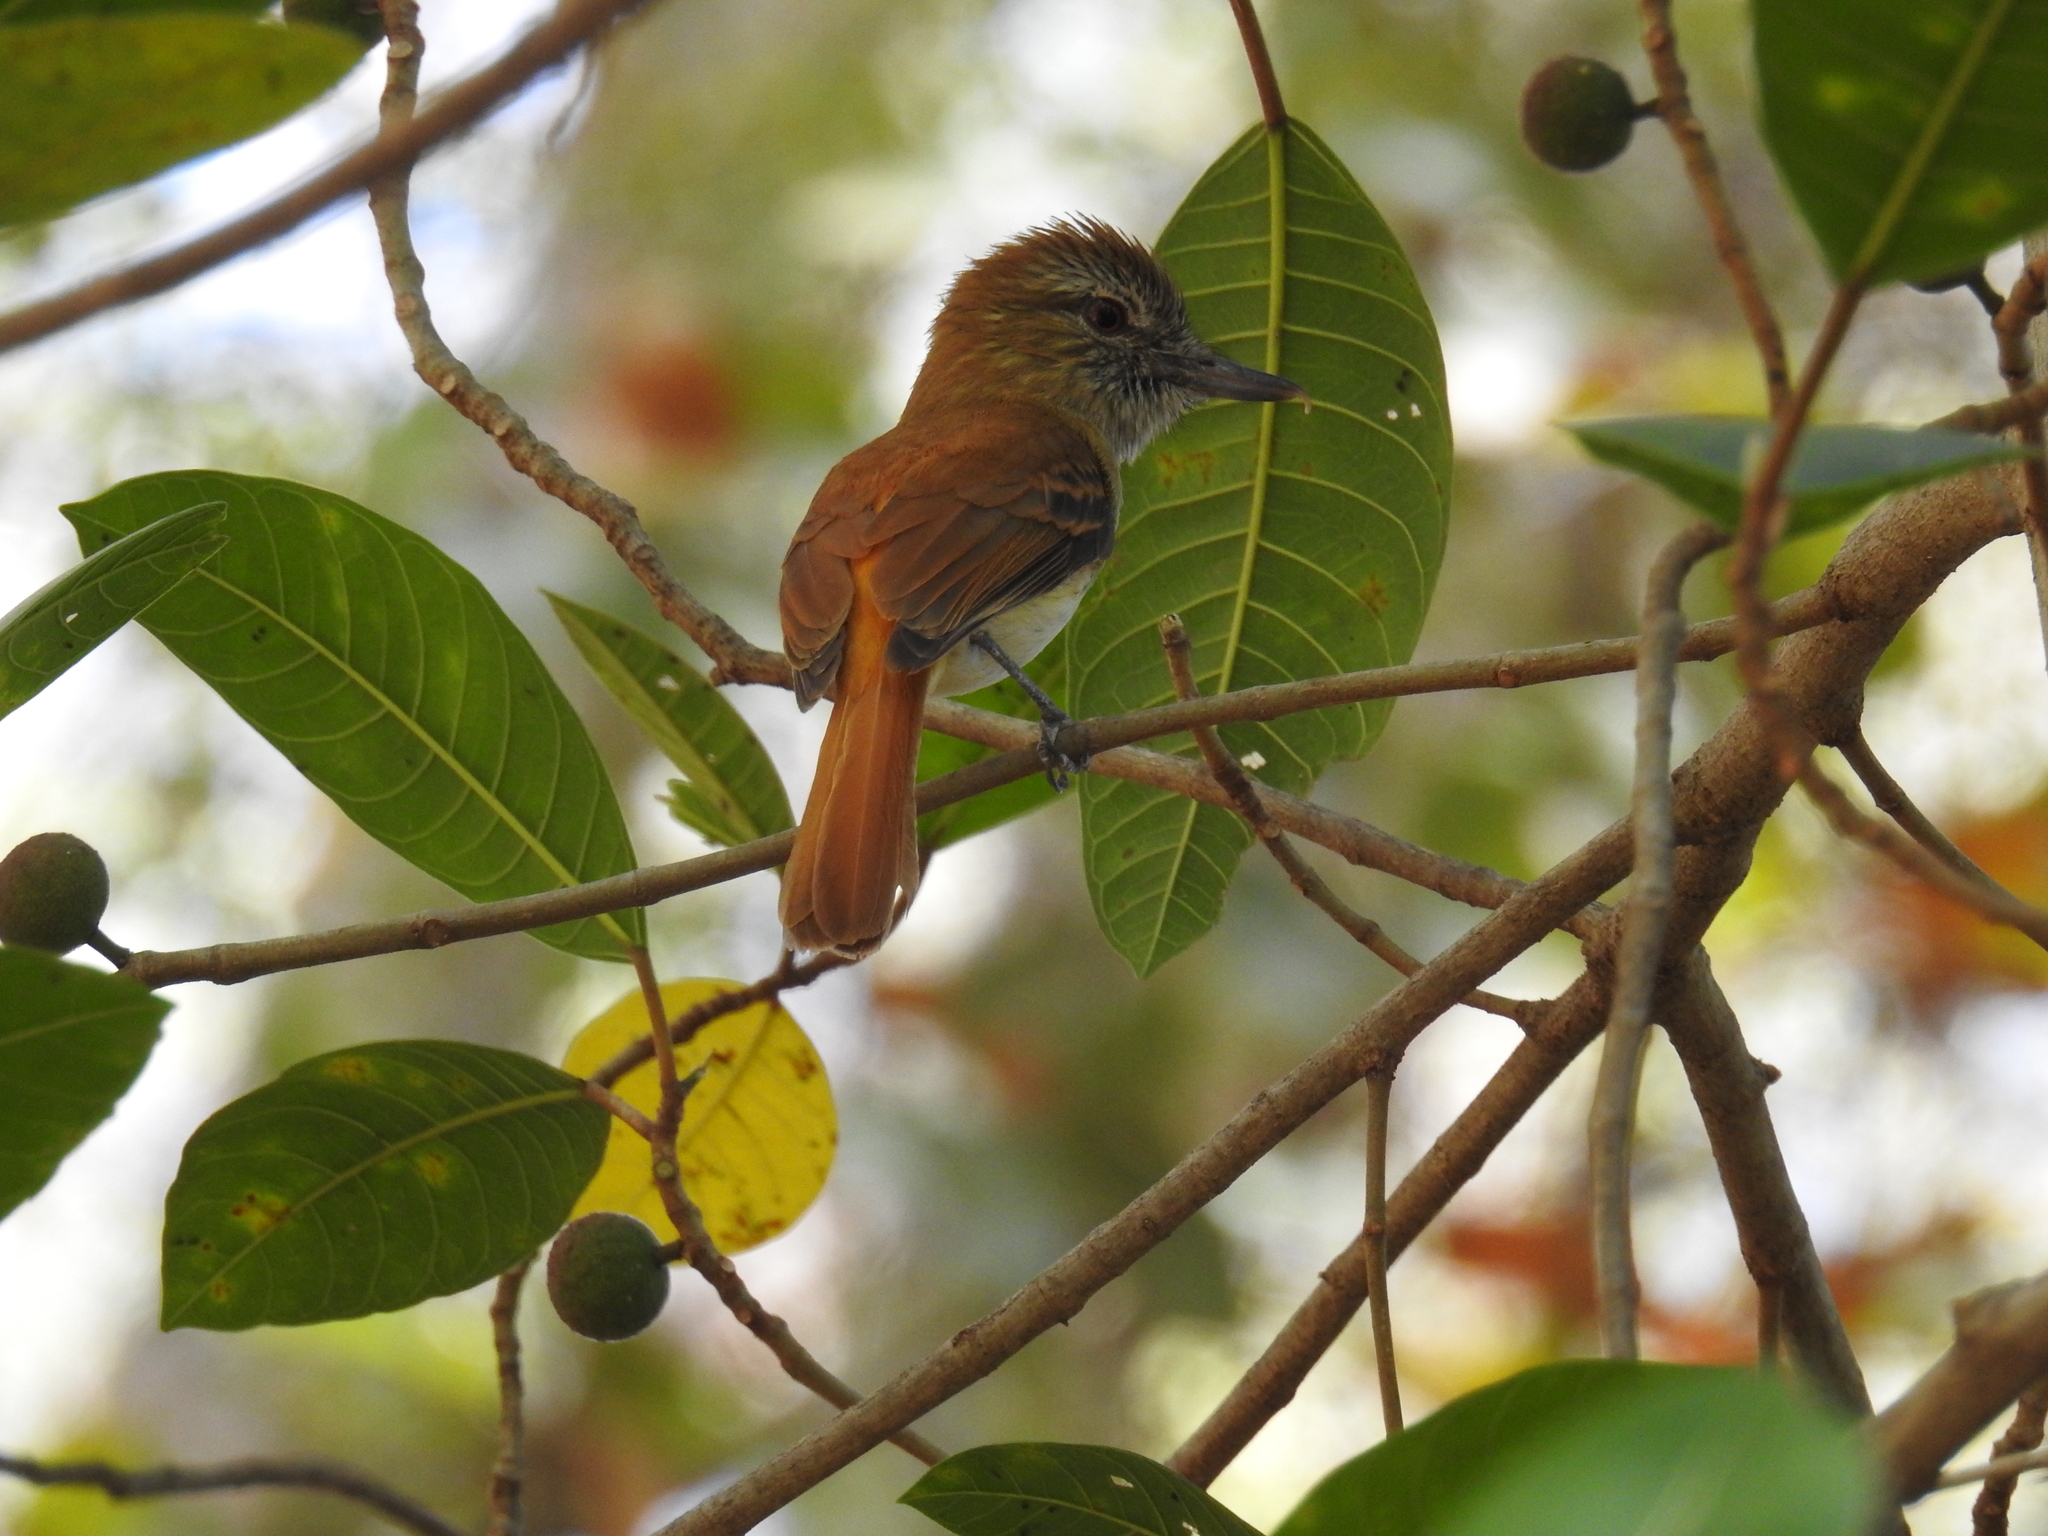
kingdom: Animalia
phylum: Chordata
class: Aves
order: Passeriformes
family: Tyrannidae
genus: Attila
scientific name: Attila spadiceus
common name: Bright-rumped attila
